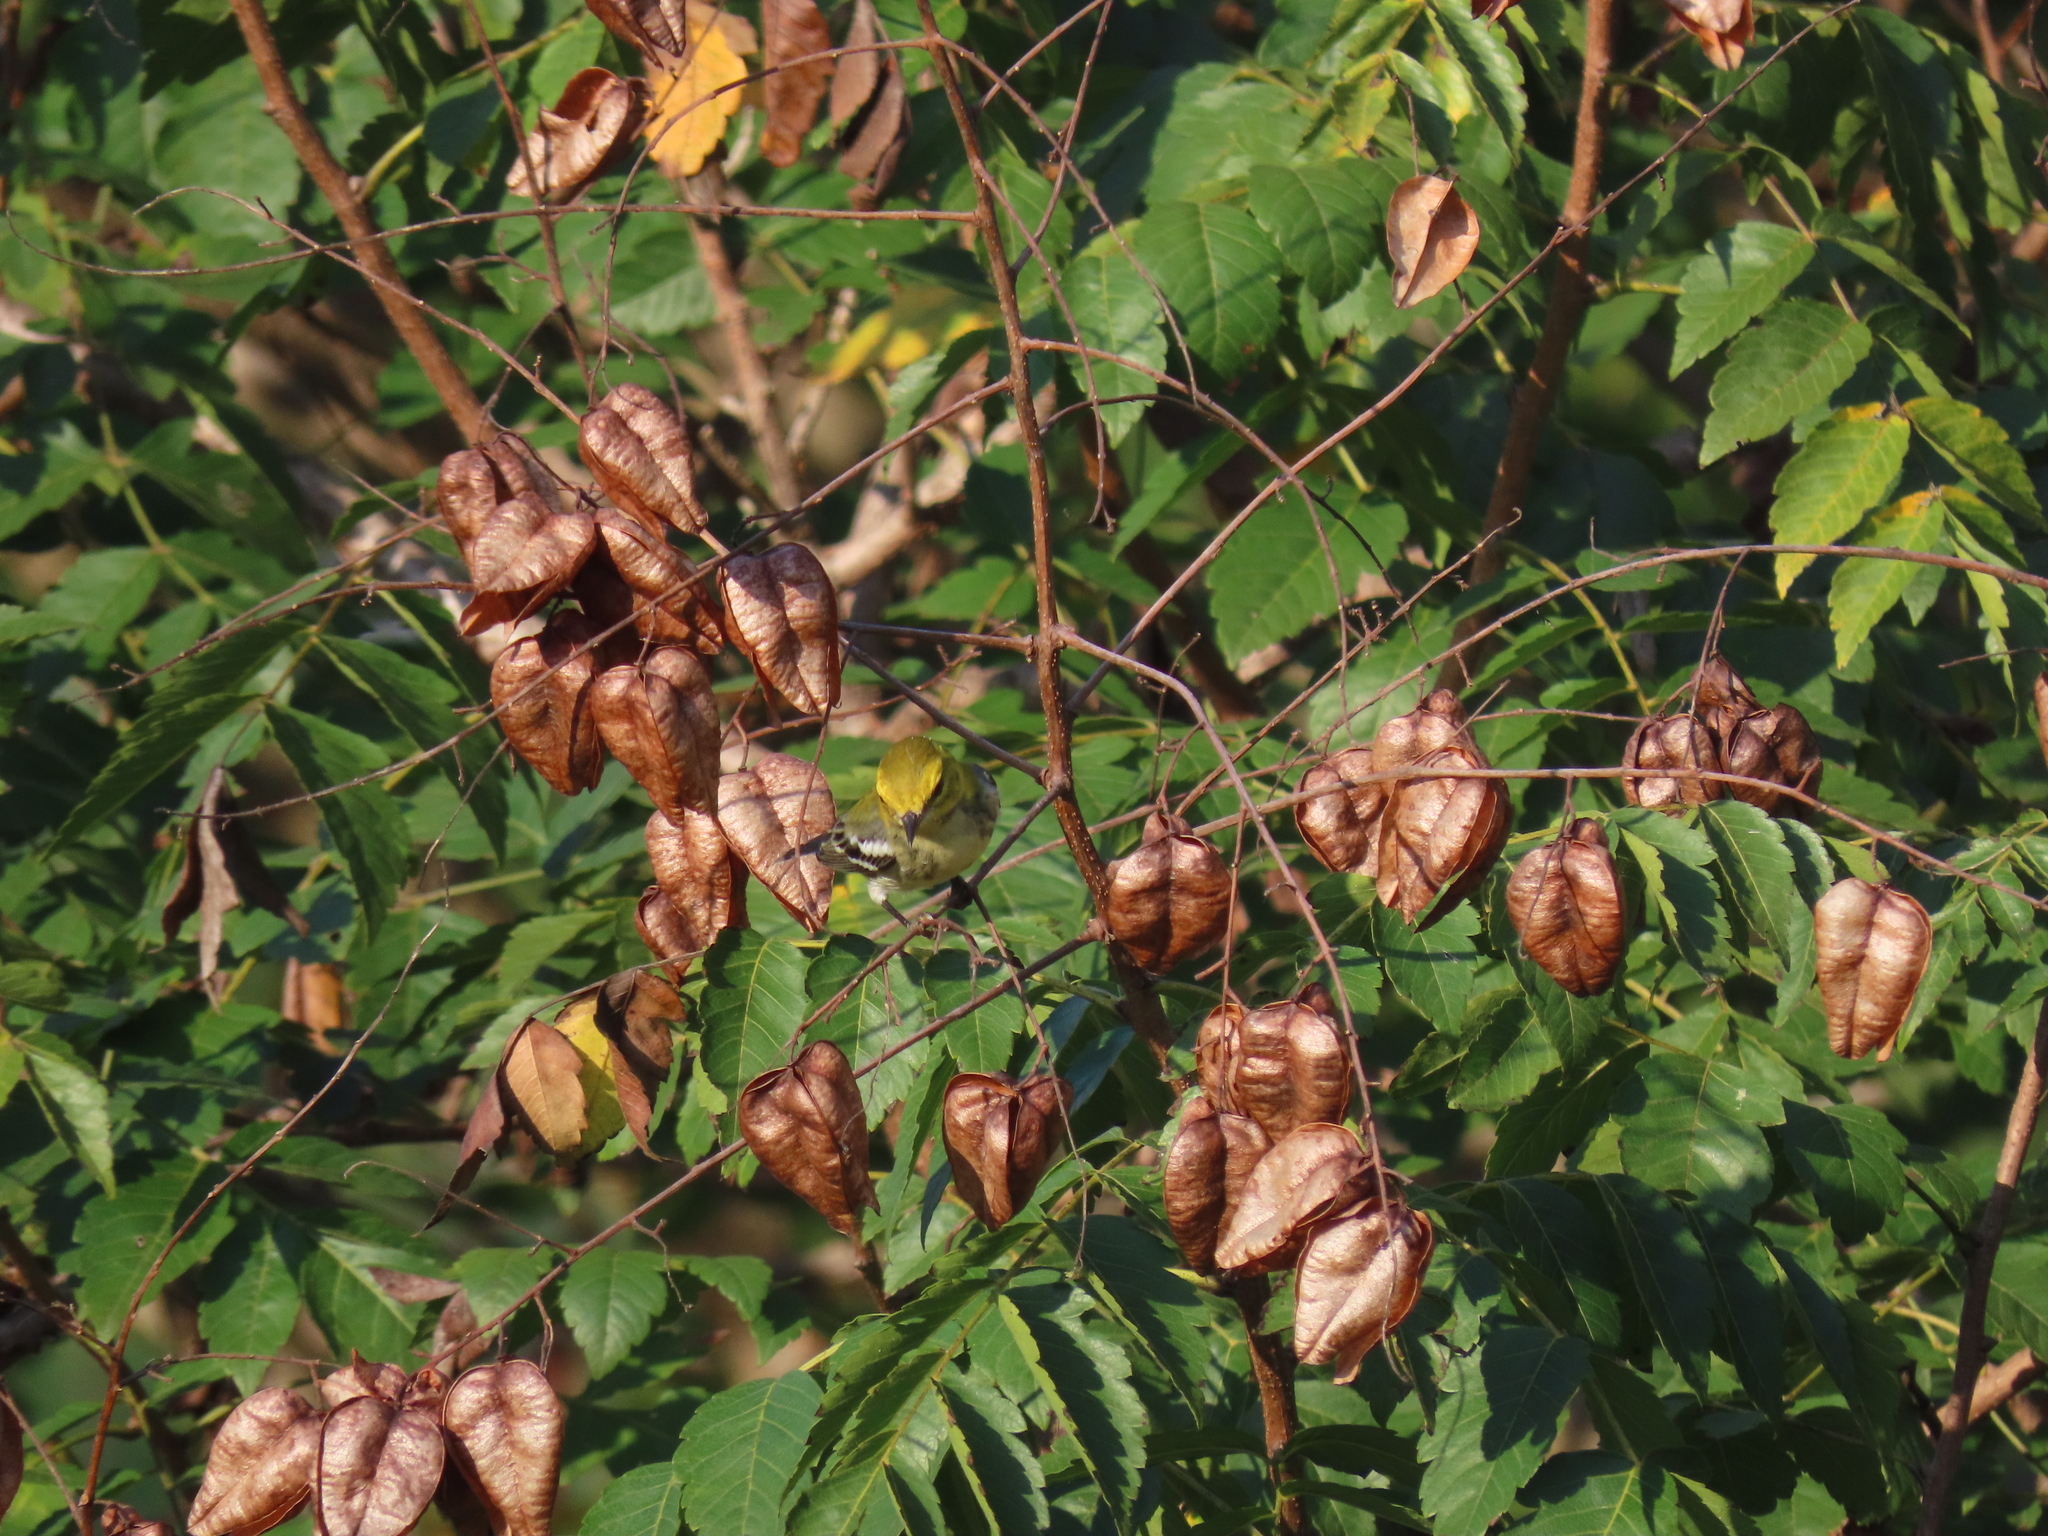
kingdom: Animalia
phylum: Chordata
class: Aves
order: Passeriformes
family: Parulidae
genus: Setophaga
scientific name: Setophaga virens
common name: Black-throated green warbler
